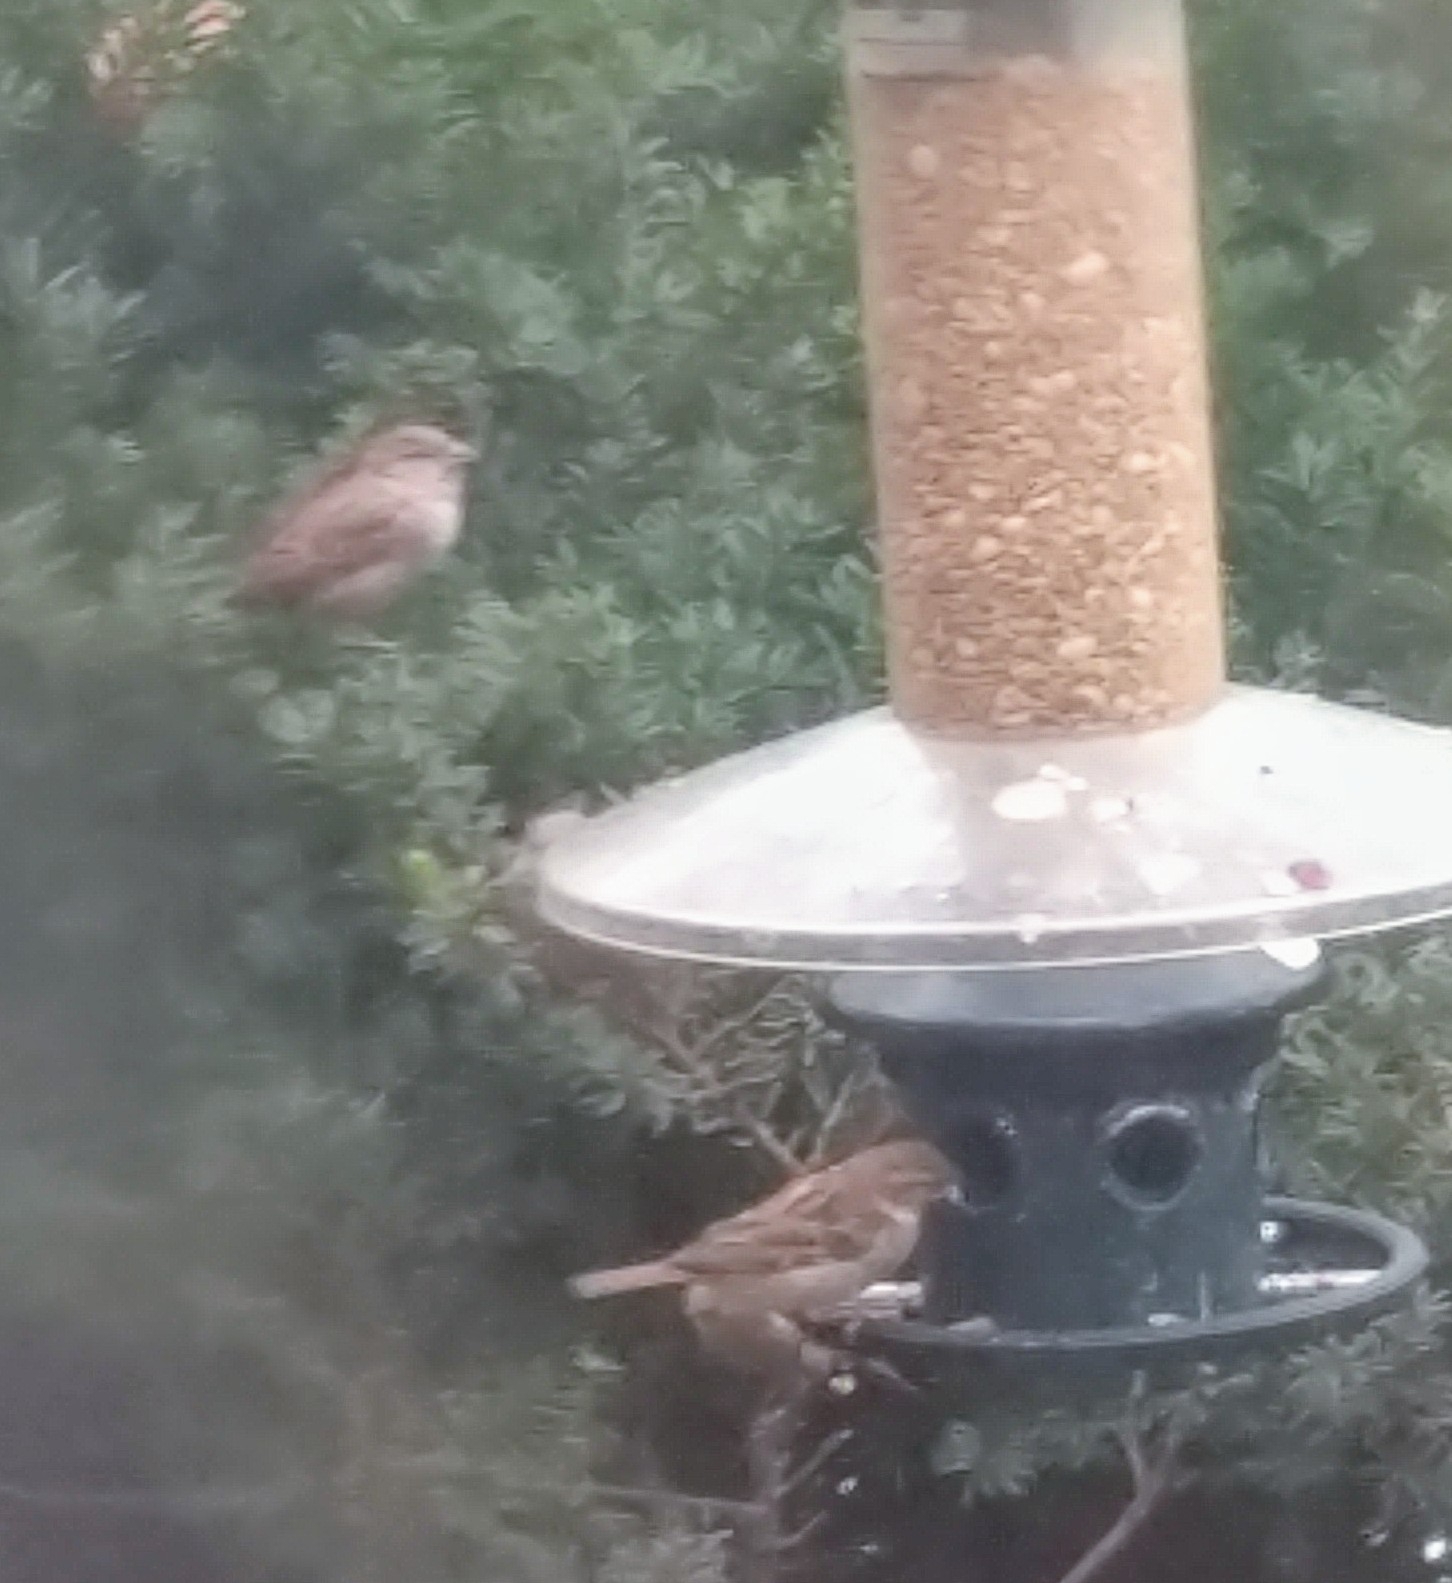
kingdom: Animalia
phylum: Chordata
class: Aves
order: Passeriformes
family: Passeridae
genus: Passer
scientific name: Passer domesticus
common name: House sparrow
